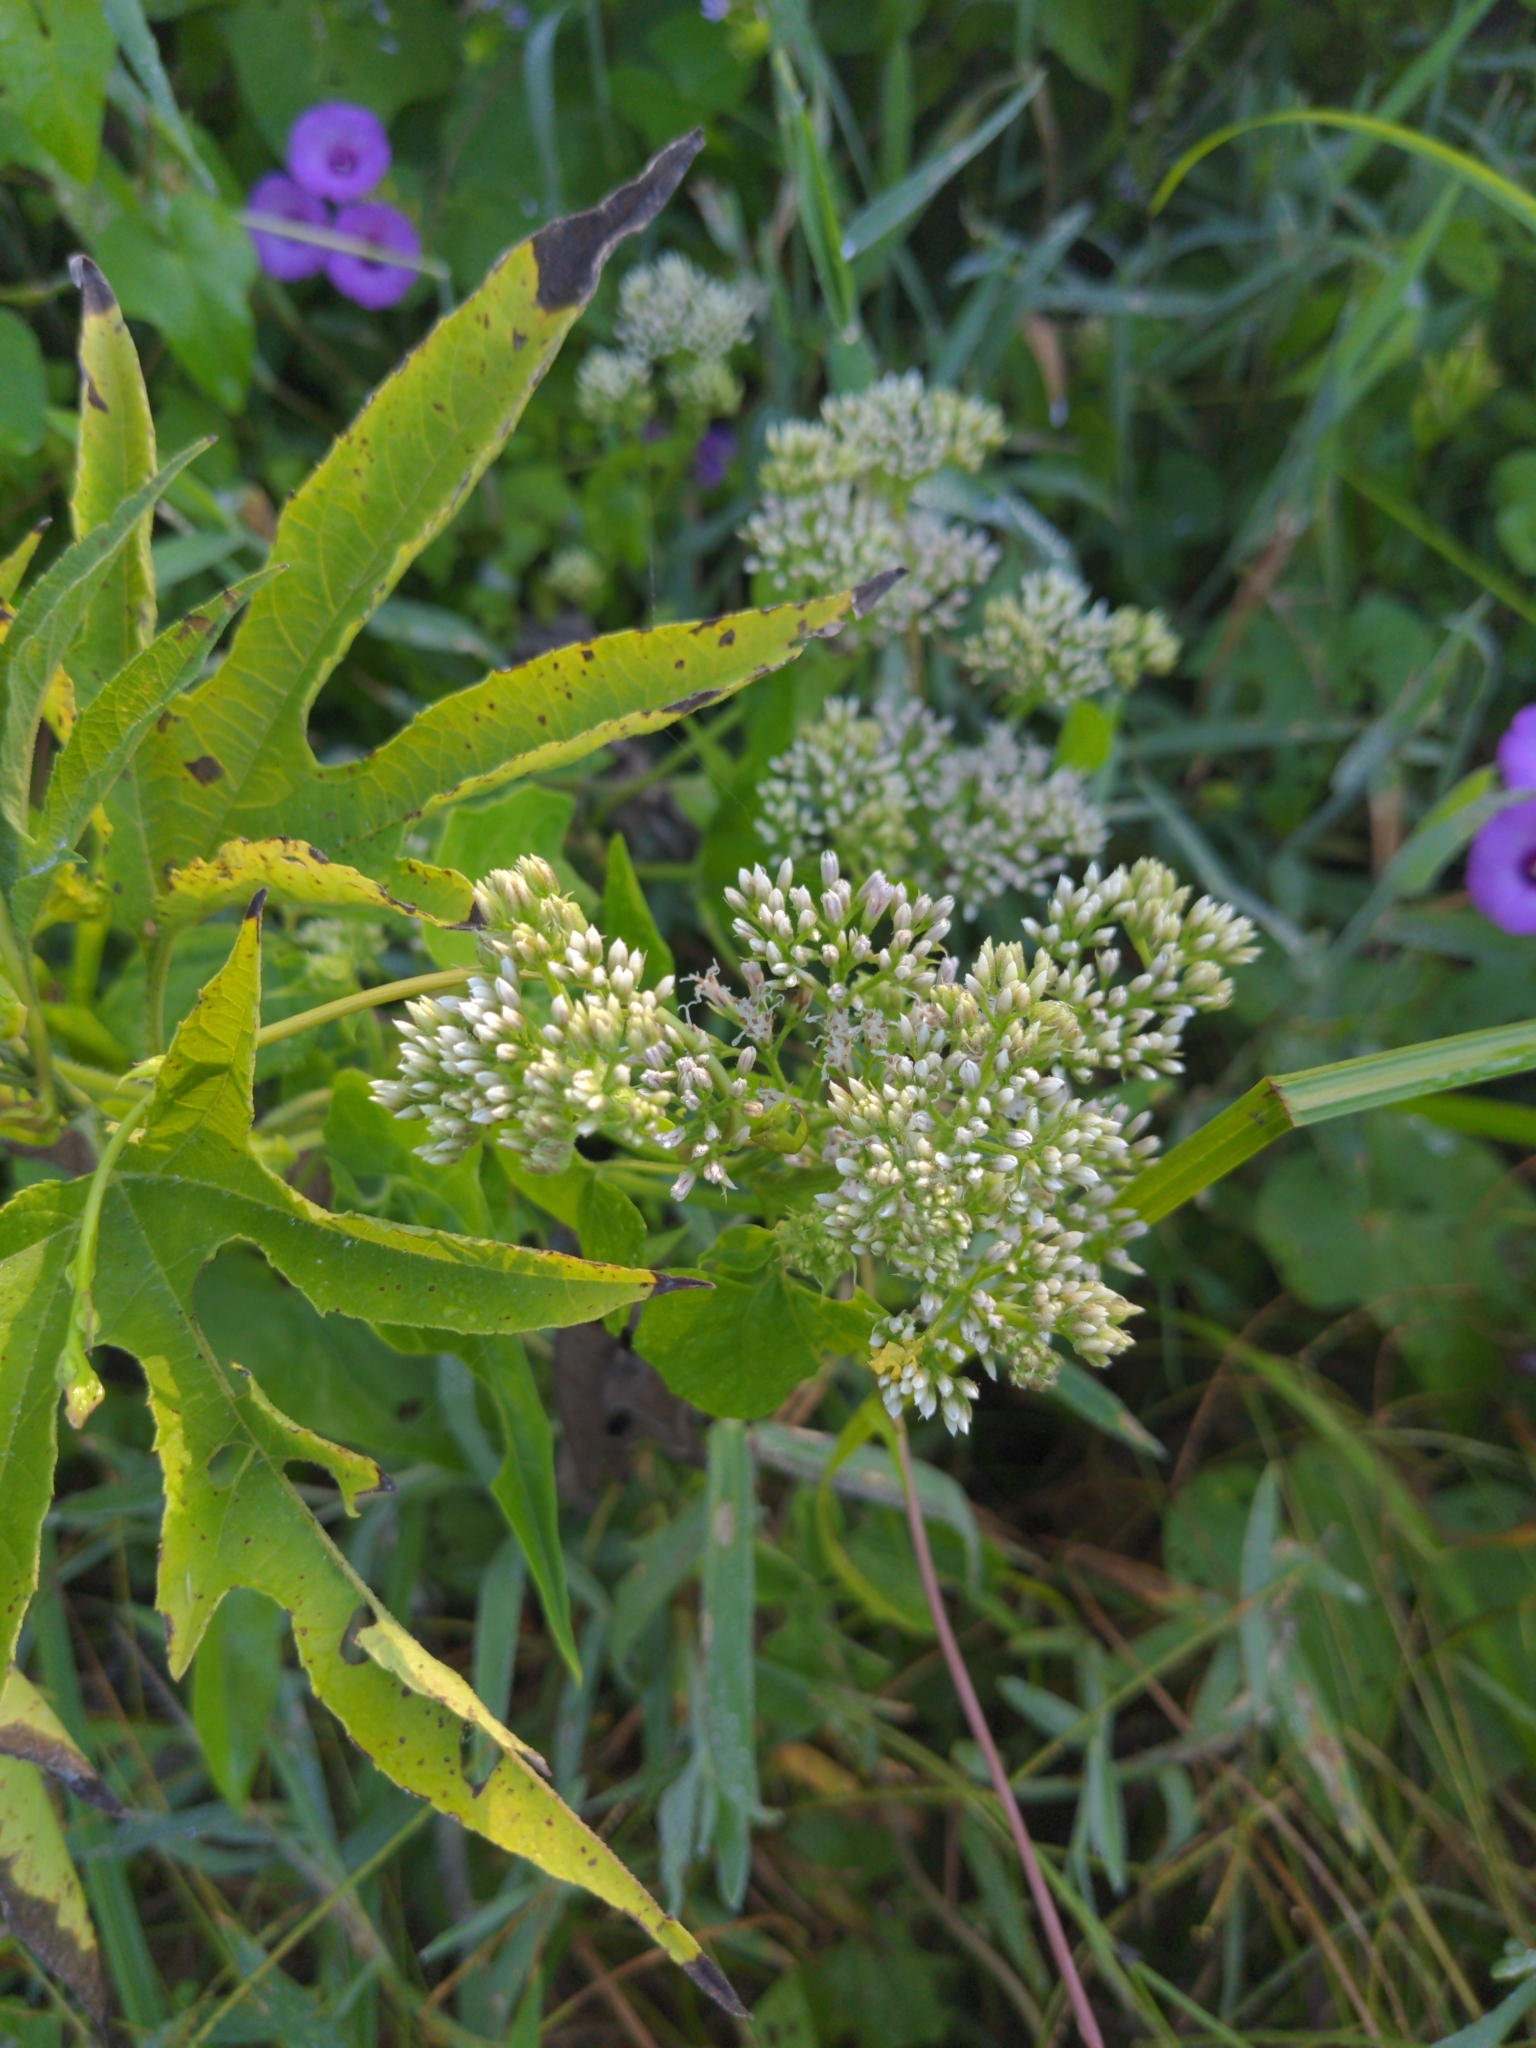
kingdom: Plantae
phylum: Tracheophyta
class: Magnoliopsida
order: Asterales
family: Asteraceae
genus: Mikania
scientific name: Mikania scandens
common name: Climbing hempvine
